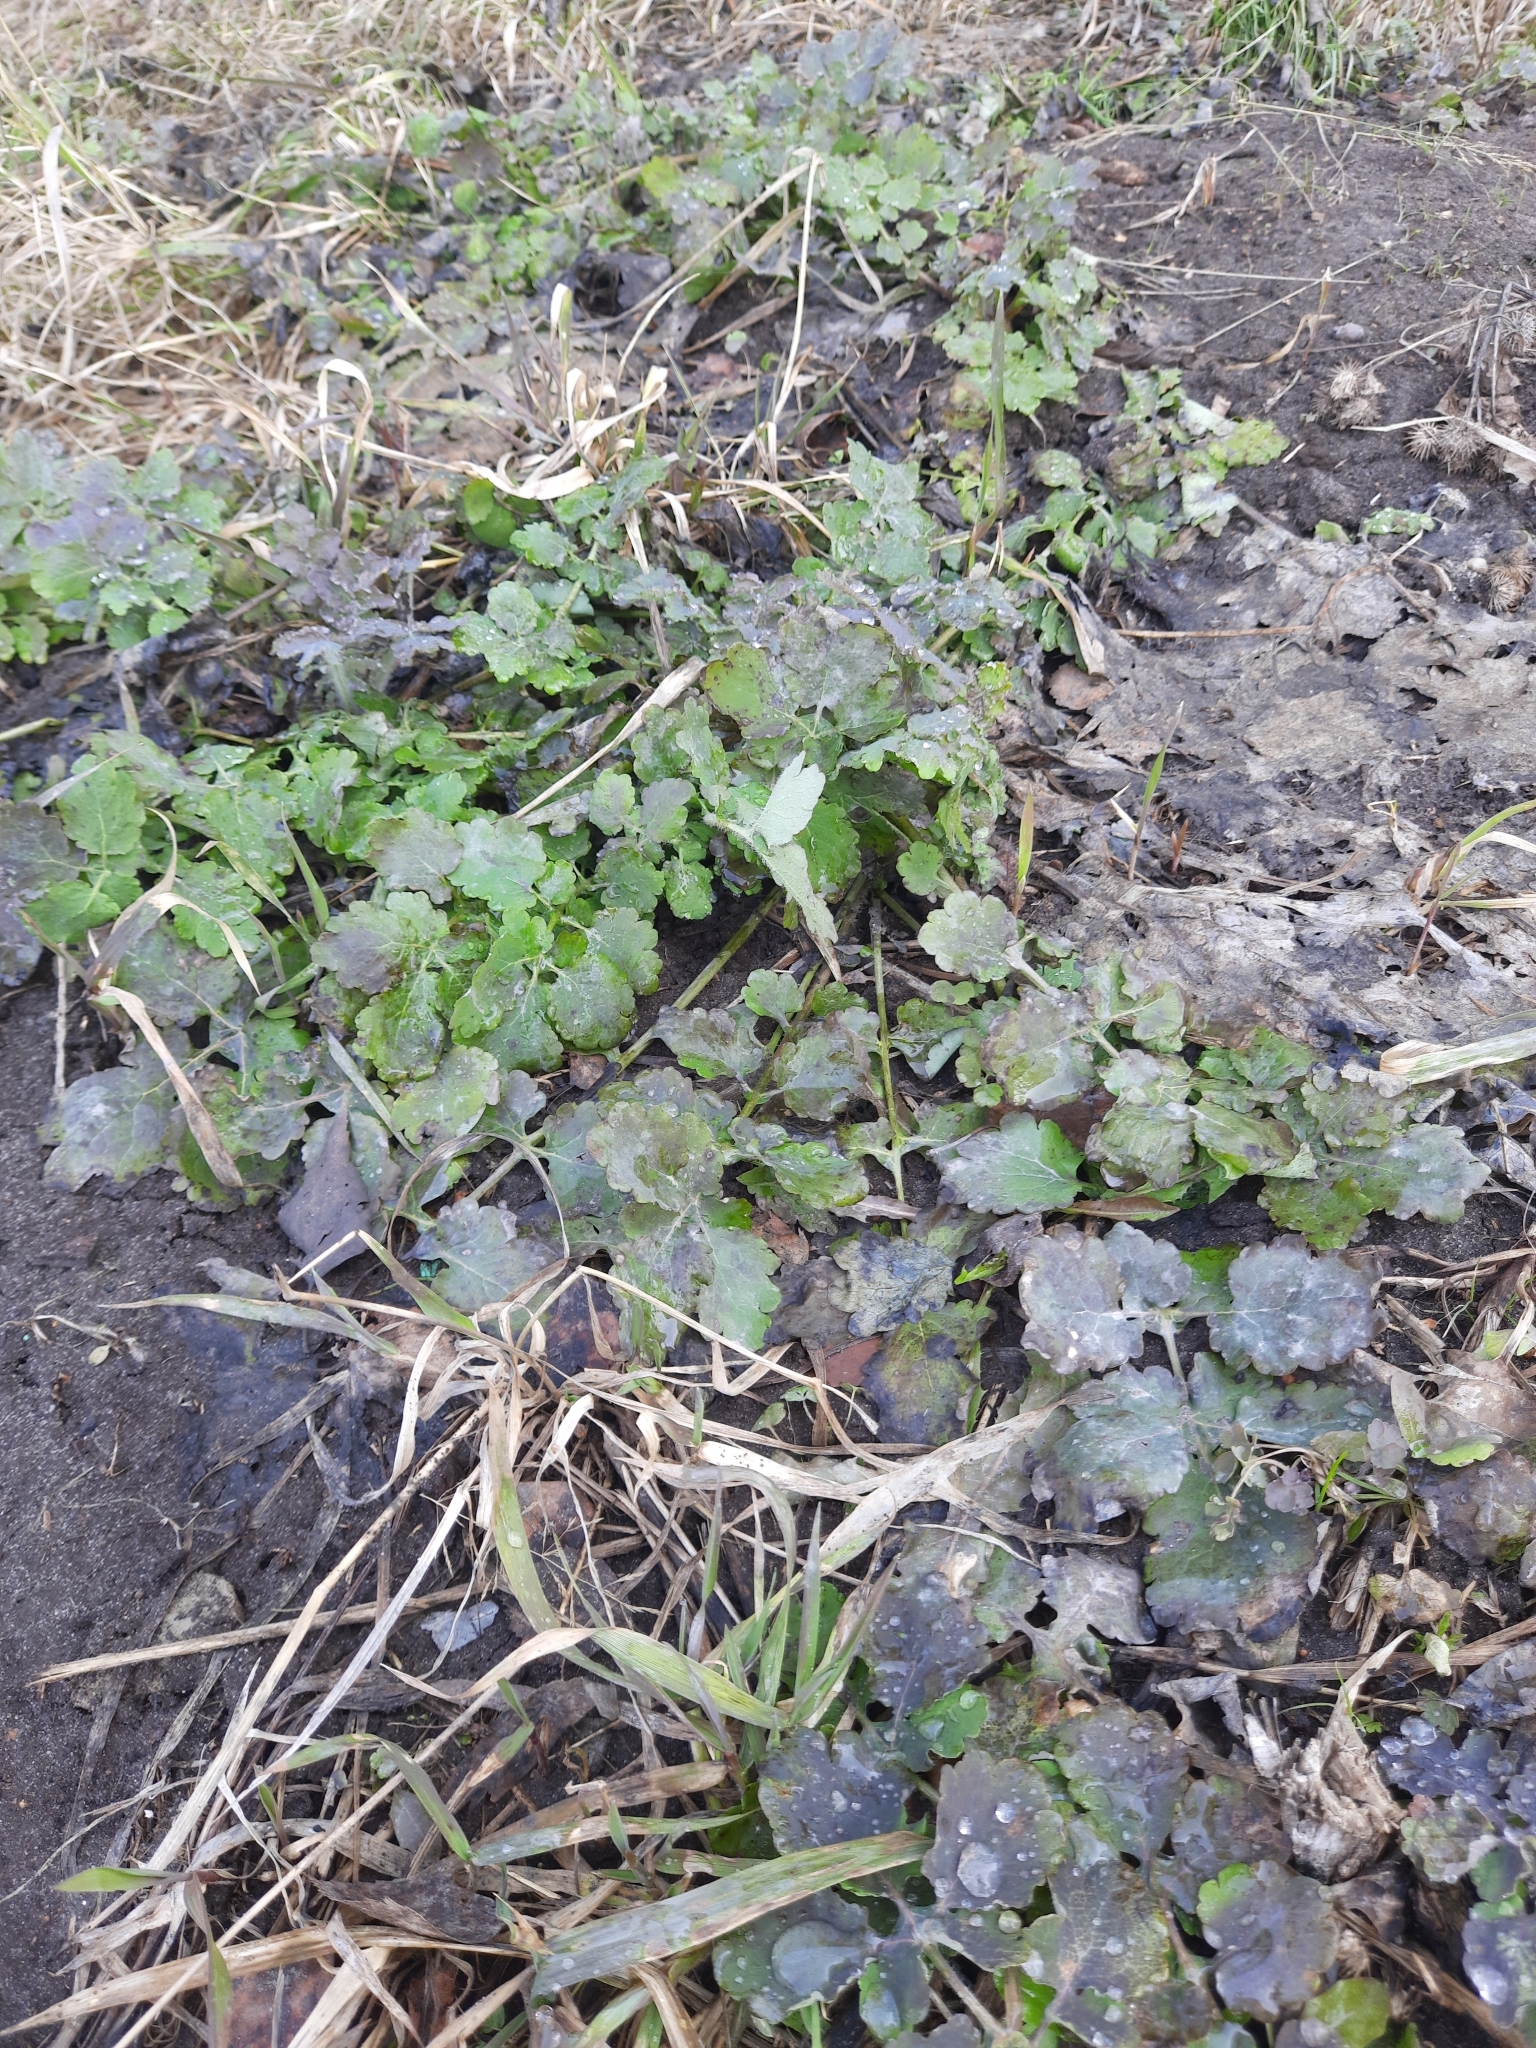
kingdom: Plantae
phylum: Tracheophyta
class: Magnoliopsida
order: Ranunculales
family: Papaveraceae
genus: Chelidonium
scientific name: Chelidonium majus
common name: Greater celandine
